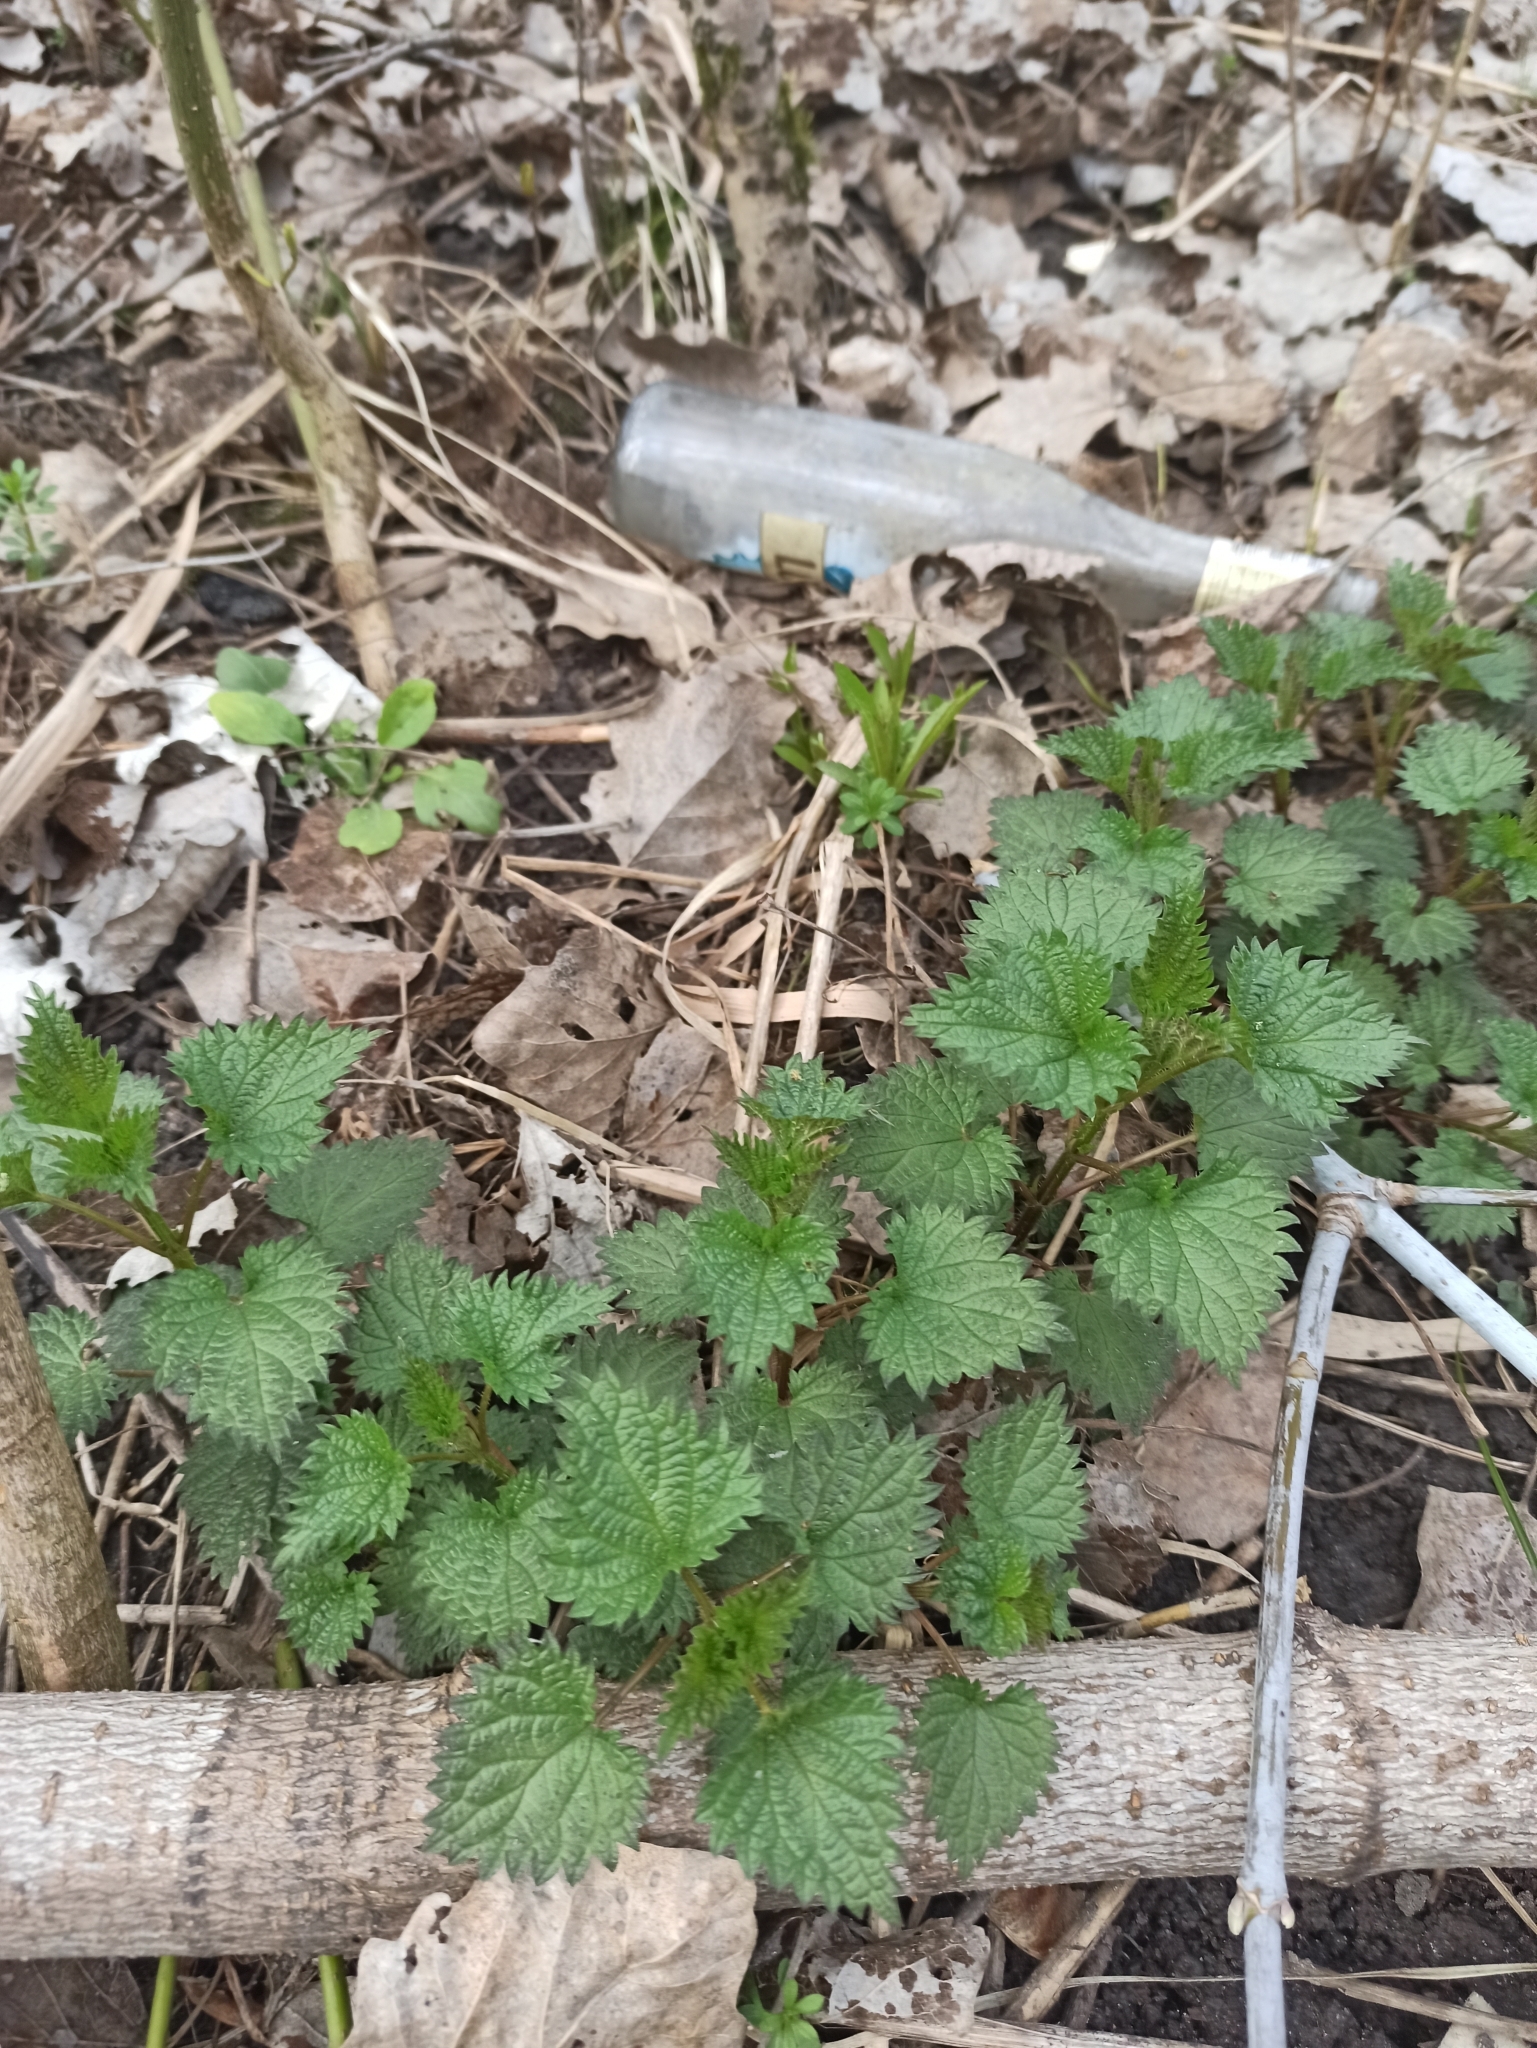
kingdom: Plantae
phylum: Tracheophyta
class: Magnoliopsida
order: Rosales
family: Urticaceae
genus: Urtica
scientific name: Urtica dioica
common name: Common nettle
